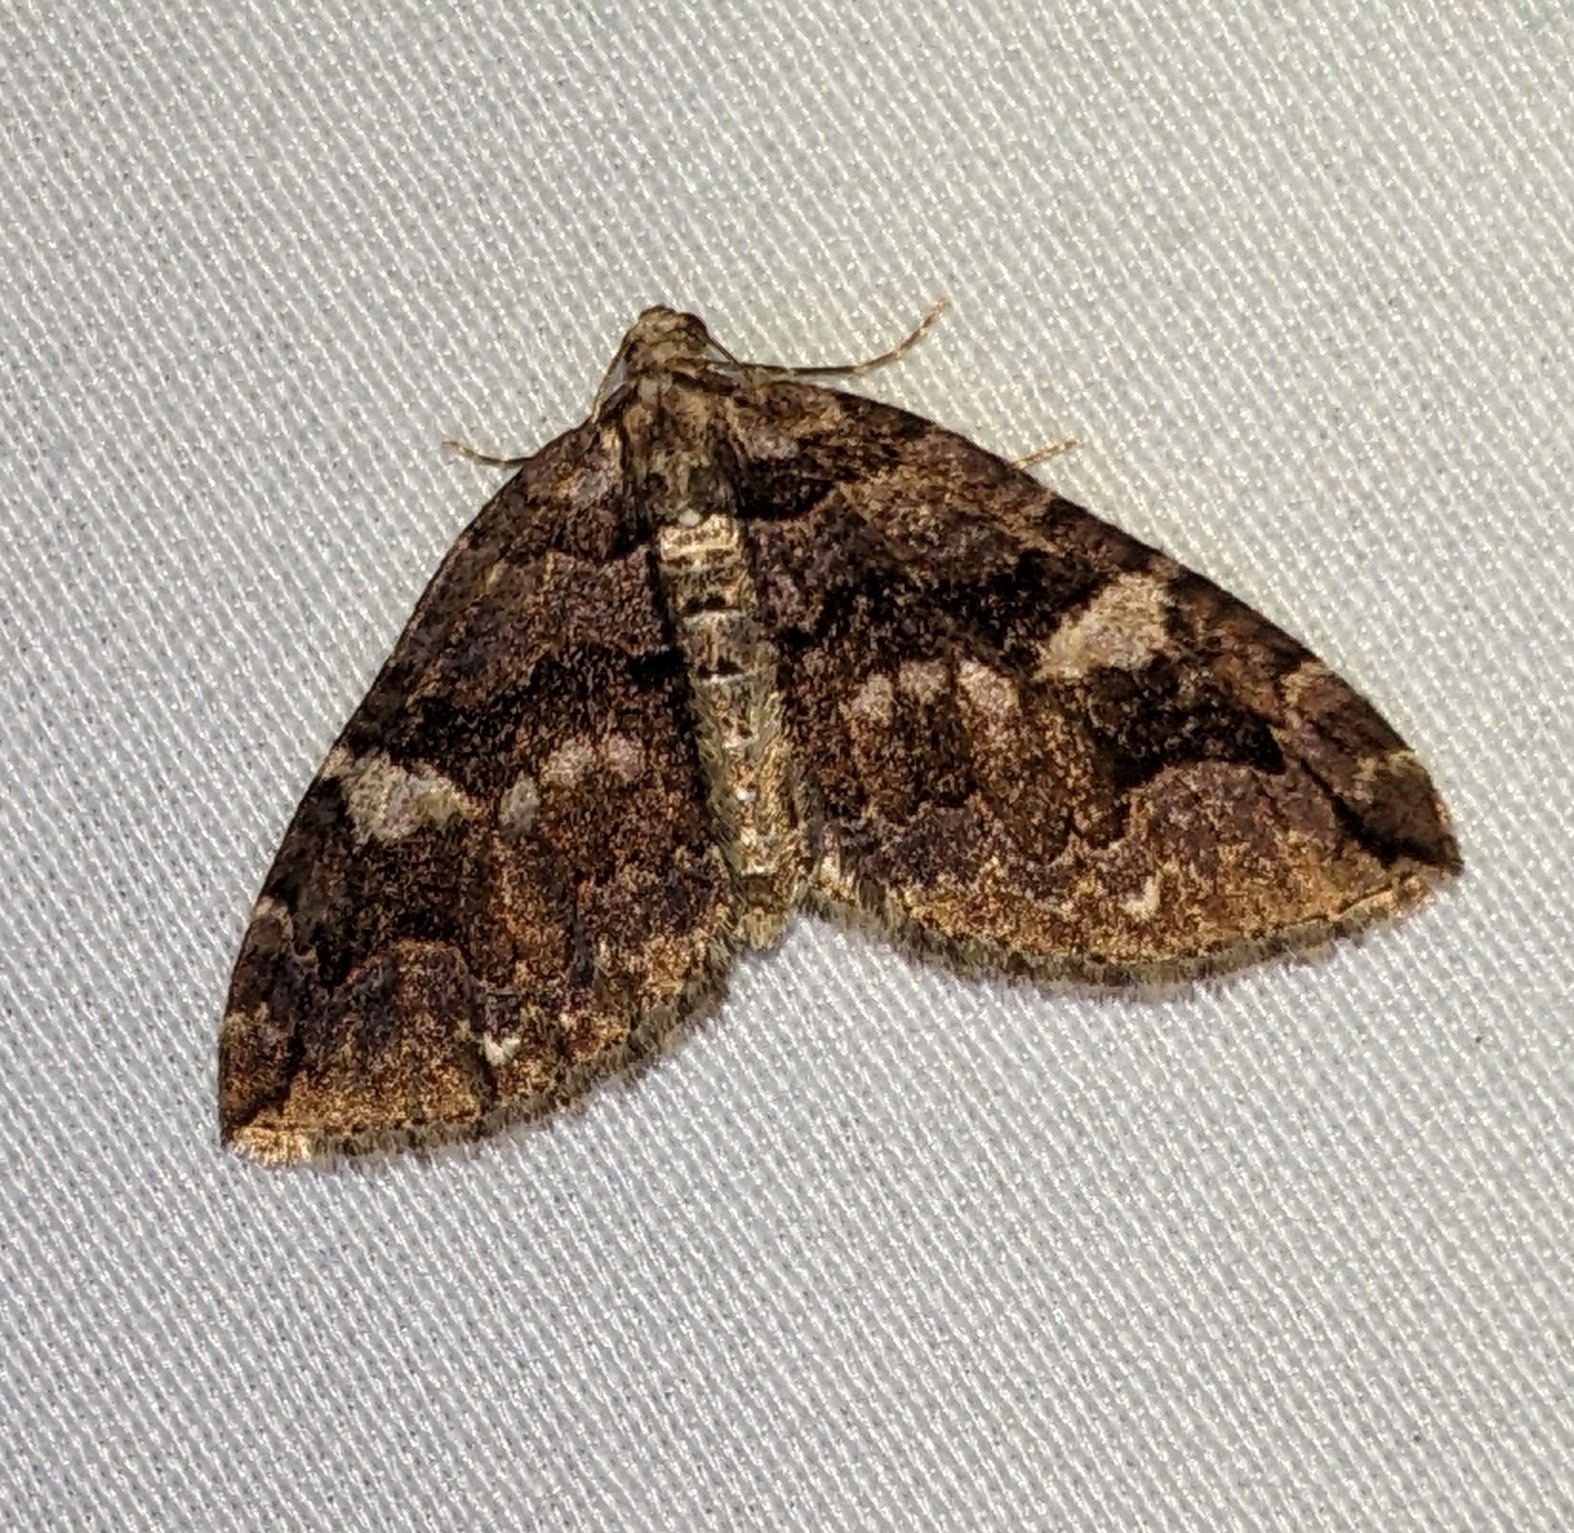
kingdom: Animalia
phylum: Arthropoda
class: Insecta
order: Lepidoptera
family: Geometridae
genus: Anticlea
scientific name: Anticlea vasiliata
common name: Variable carpet
